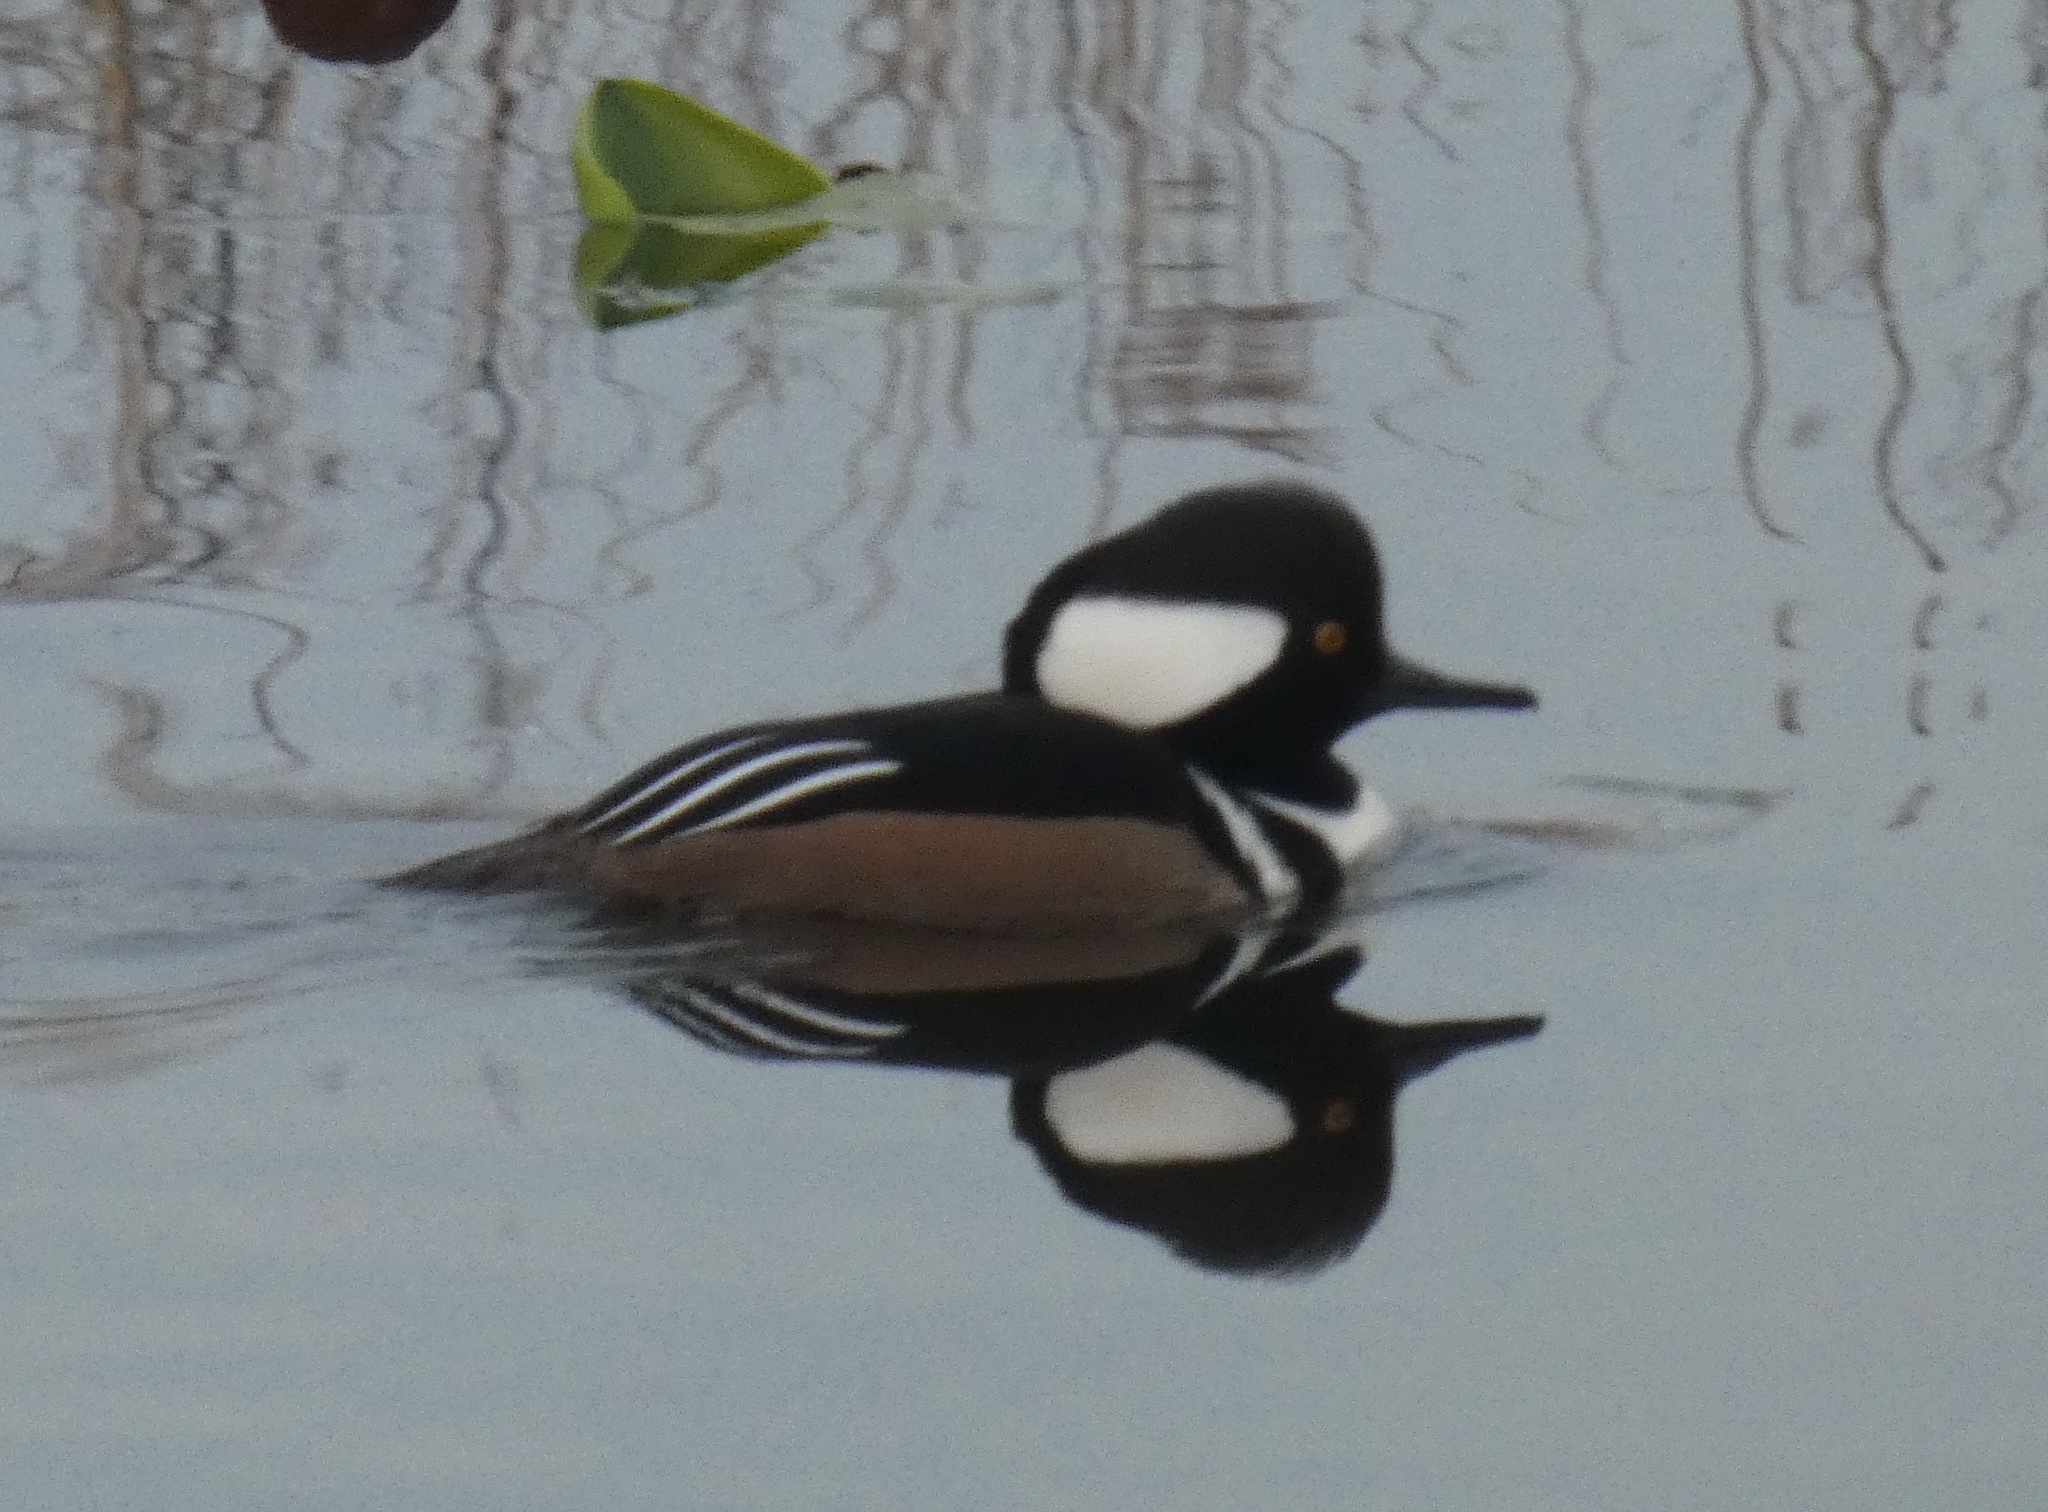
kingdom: Animalia
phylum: Chordata
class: Aves
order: Anseriformes
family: Anatidae
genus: Lophodytes
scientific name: Lophodytes cucullatus
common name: Hooded merganser
